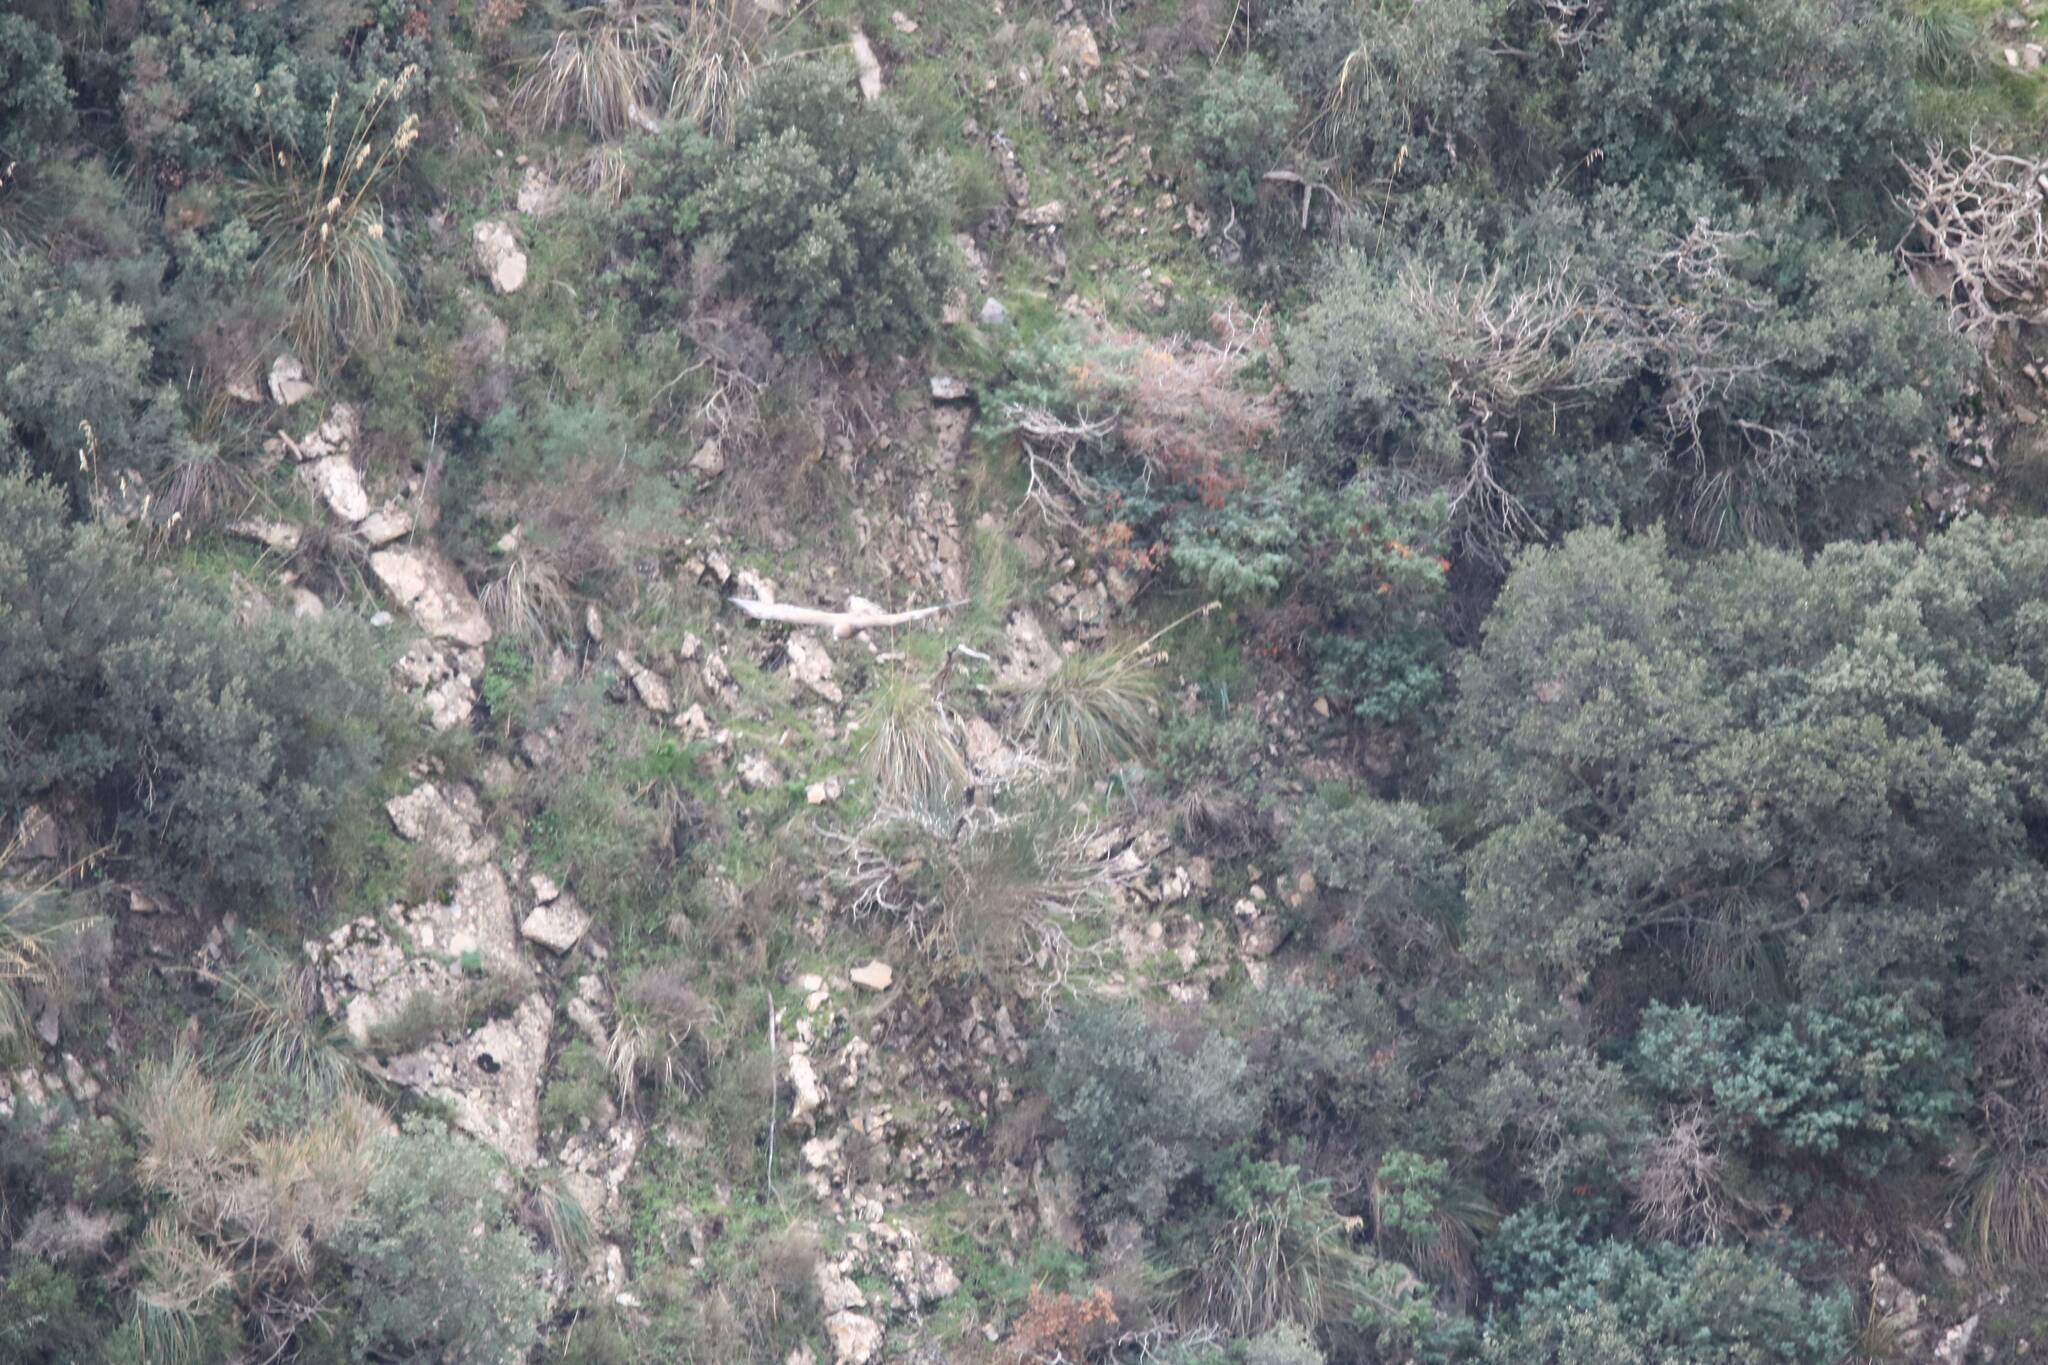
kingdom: Animalia
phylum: Chordata
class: Aves
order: Accipitriformes
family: Accipitridae
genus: Aquila
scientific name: Aquila chrysaetos
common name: Golden eagle
